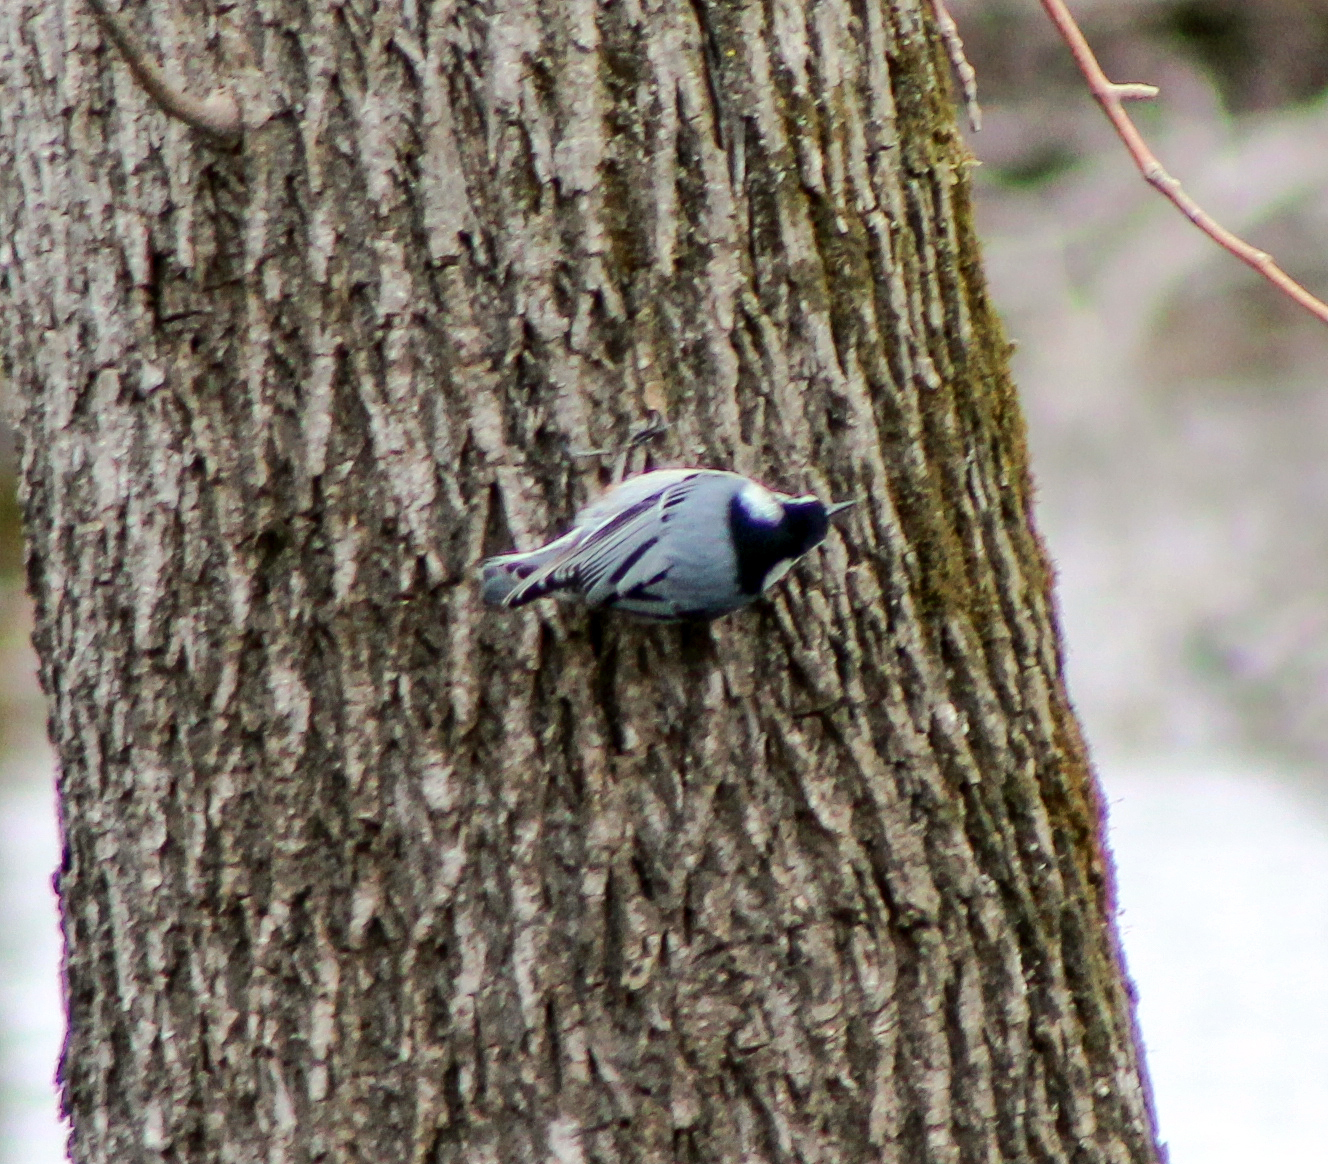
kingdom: Animalia
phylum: Chordata
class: Aves
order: Passeriformes
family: Sittidae
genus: Sitta
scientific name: Sitta carolinensis
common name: White-breasted nuthatch
